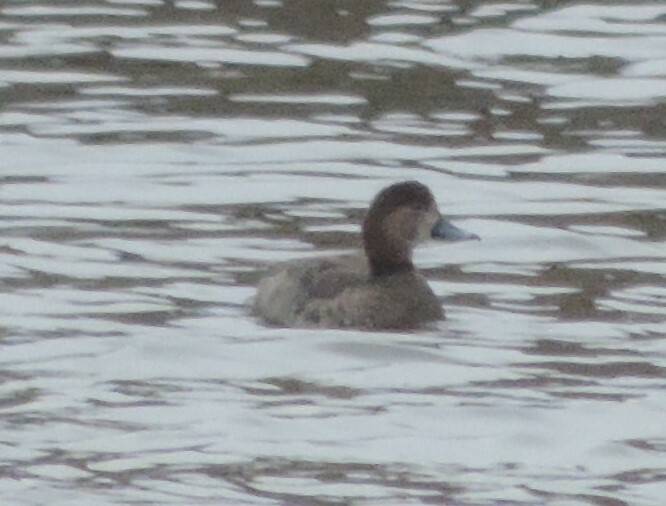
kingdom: Animalia
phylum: Chordata
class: Aves
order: Anseriformes
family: Anatidae
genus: Aythya
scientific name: Aythya americana
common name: Redhead
